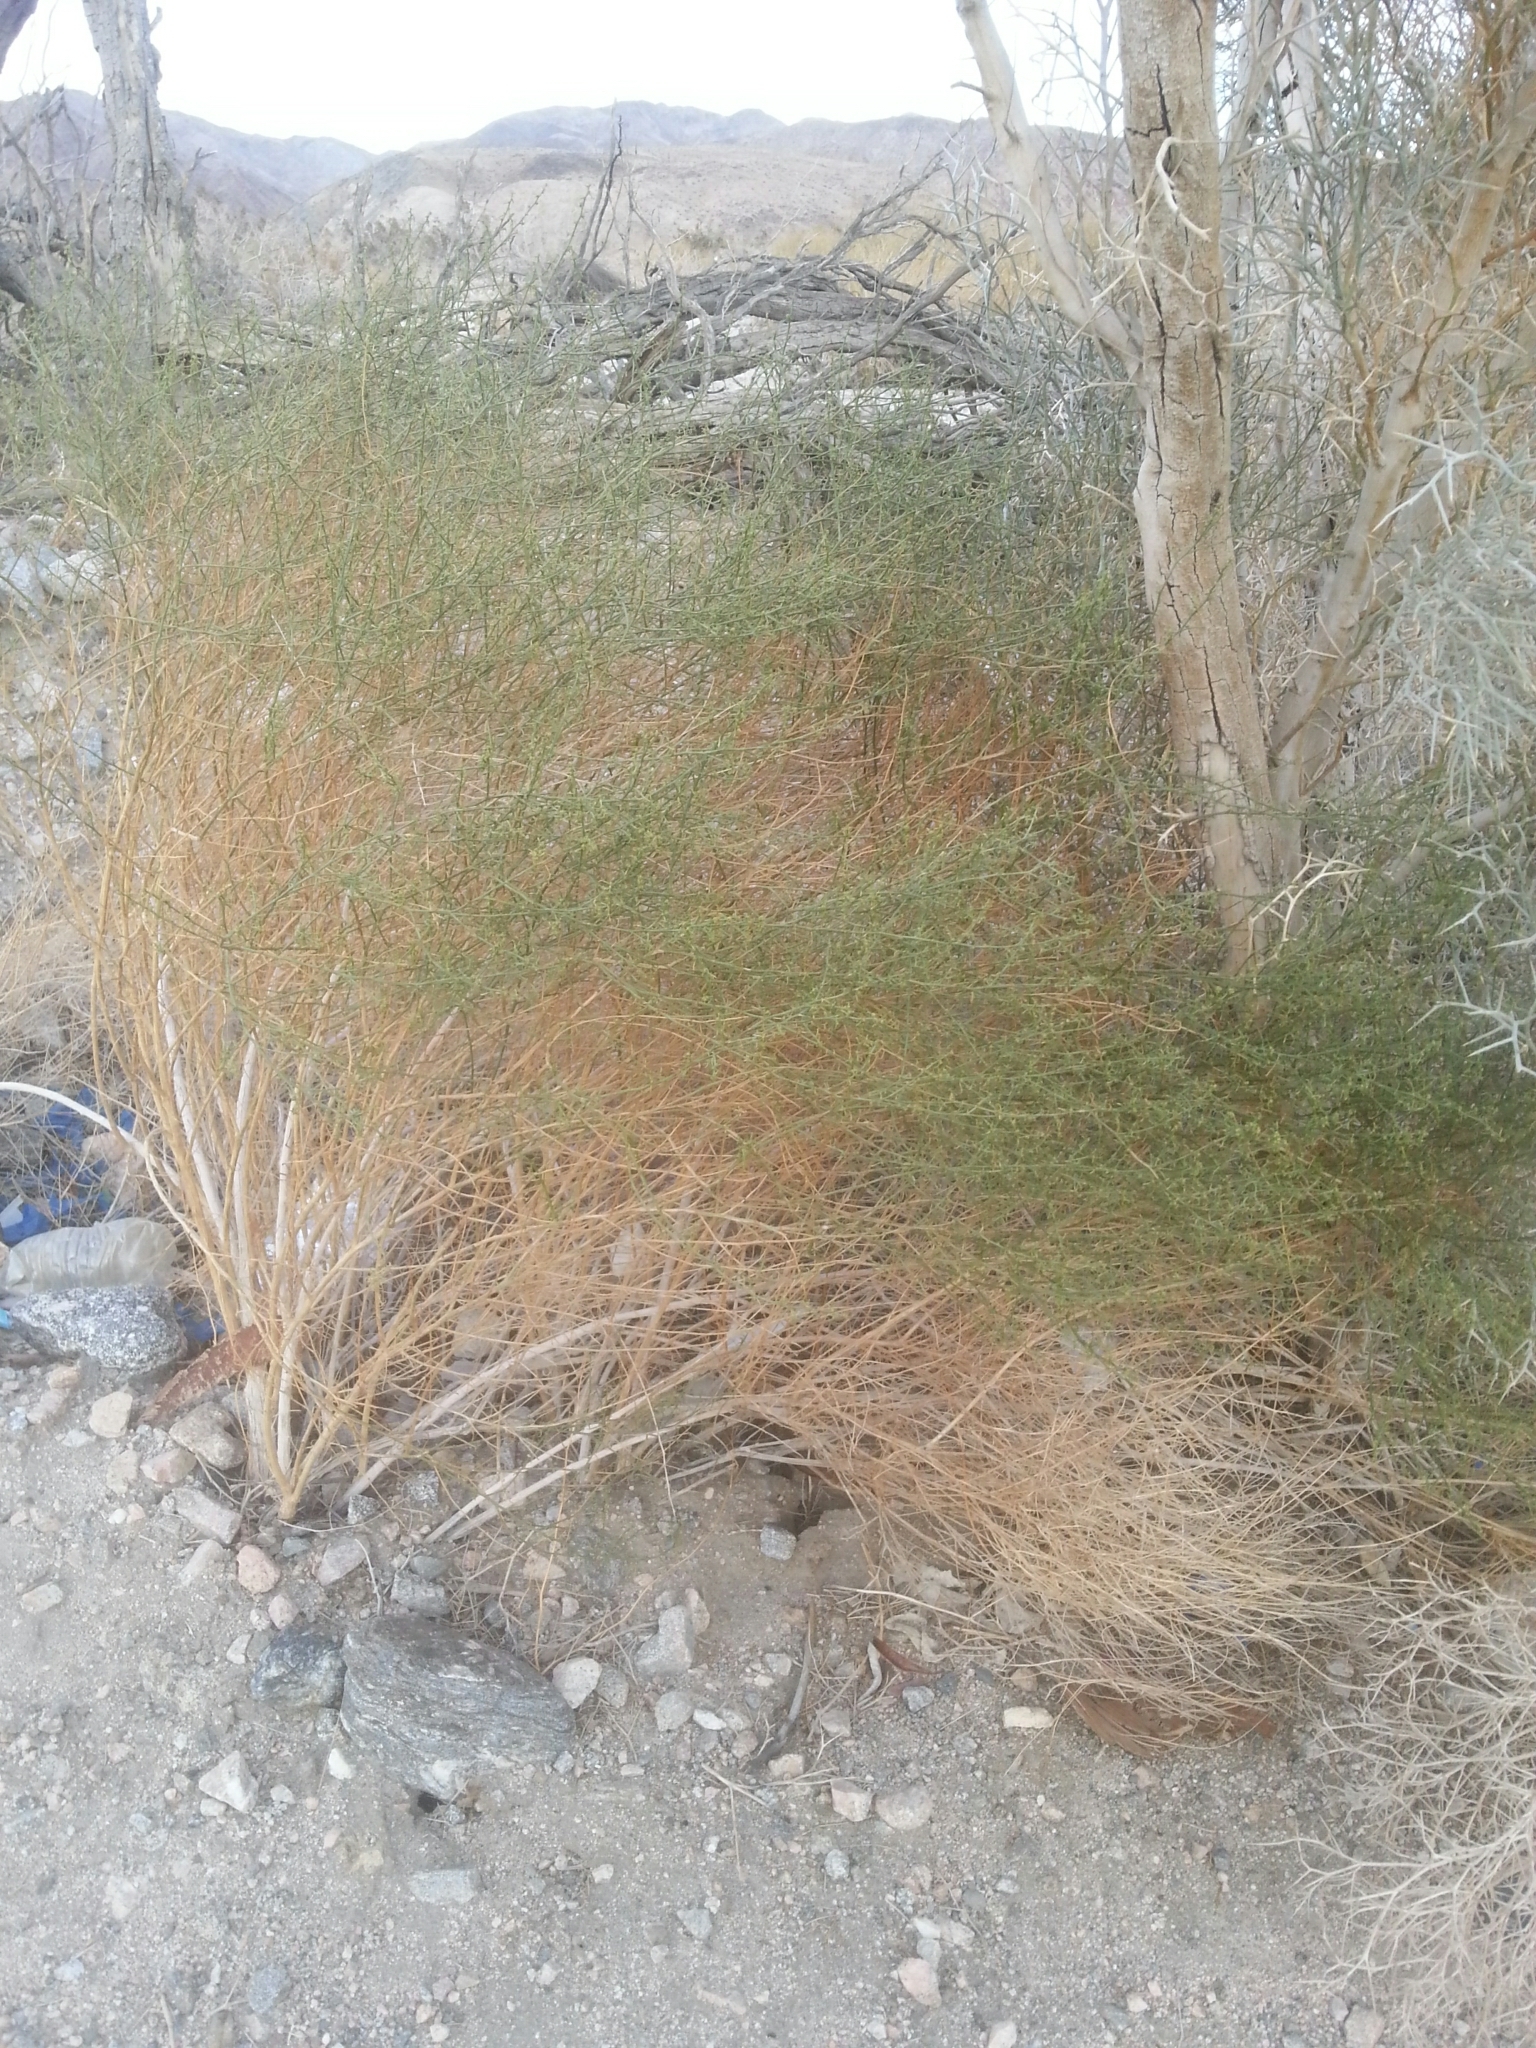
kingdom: Plantae
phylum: Tracheophyta
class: Magnoliopsida
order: Asterales
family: Asteraceae
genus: Ambrosia
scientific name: Ambrosia salsola
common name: Burrobrush
